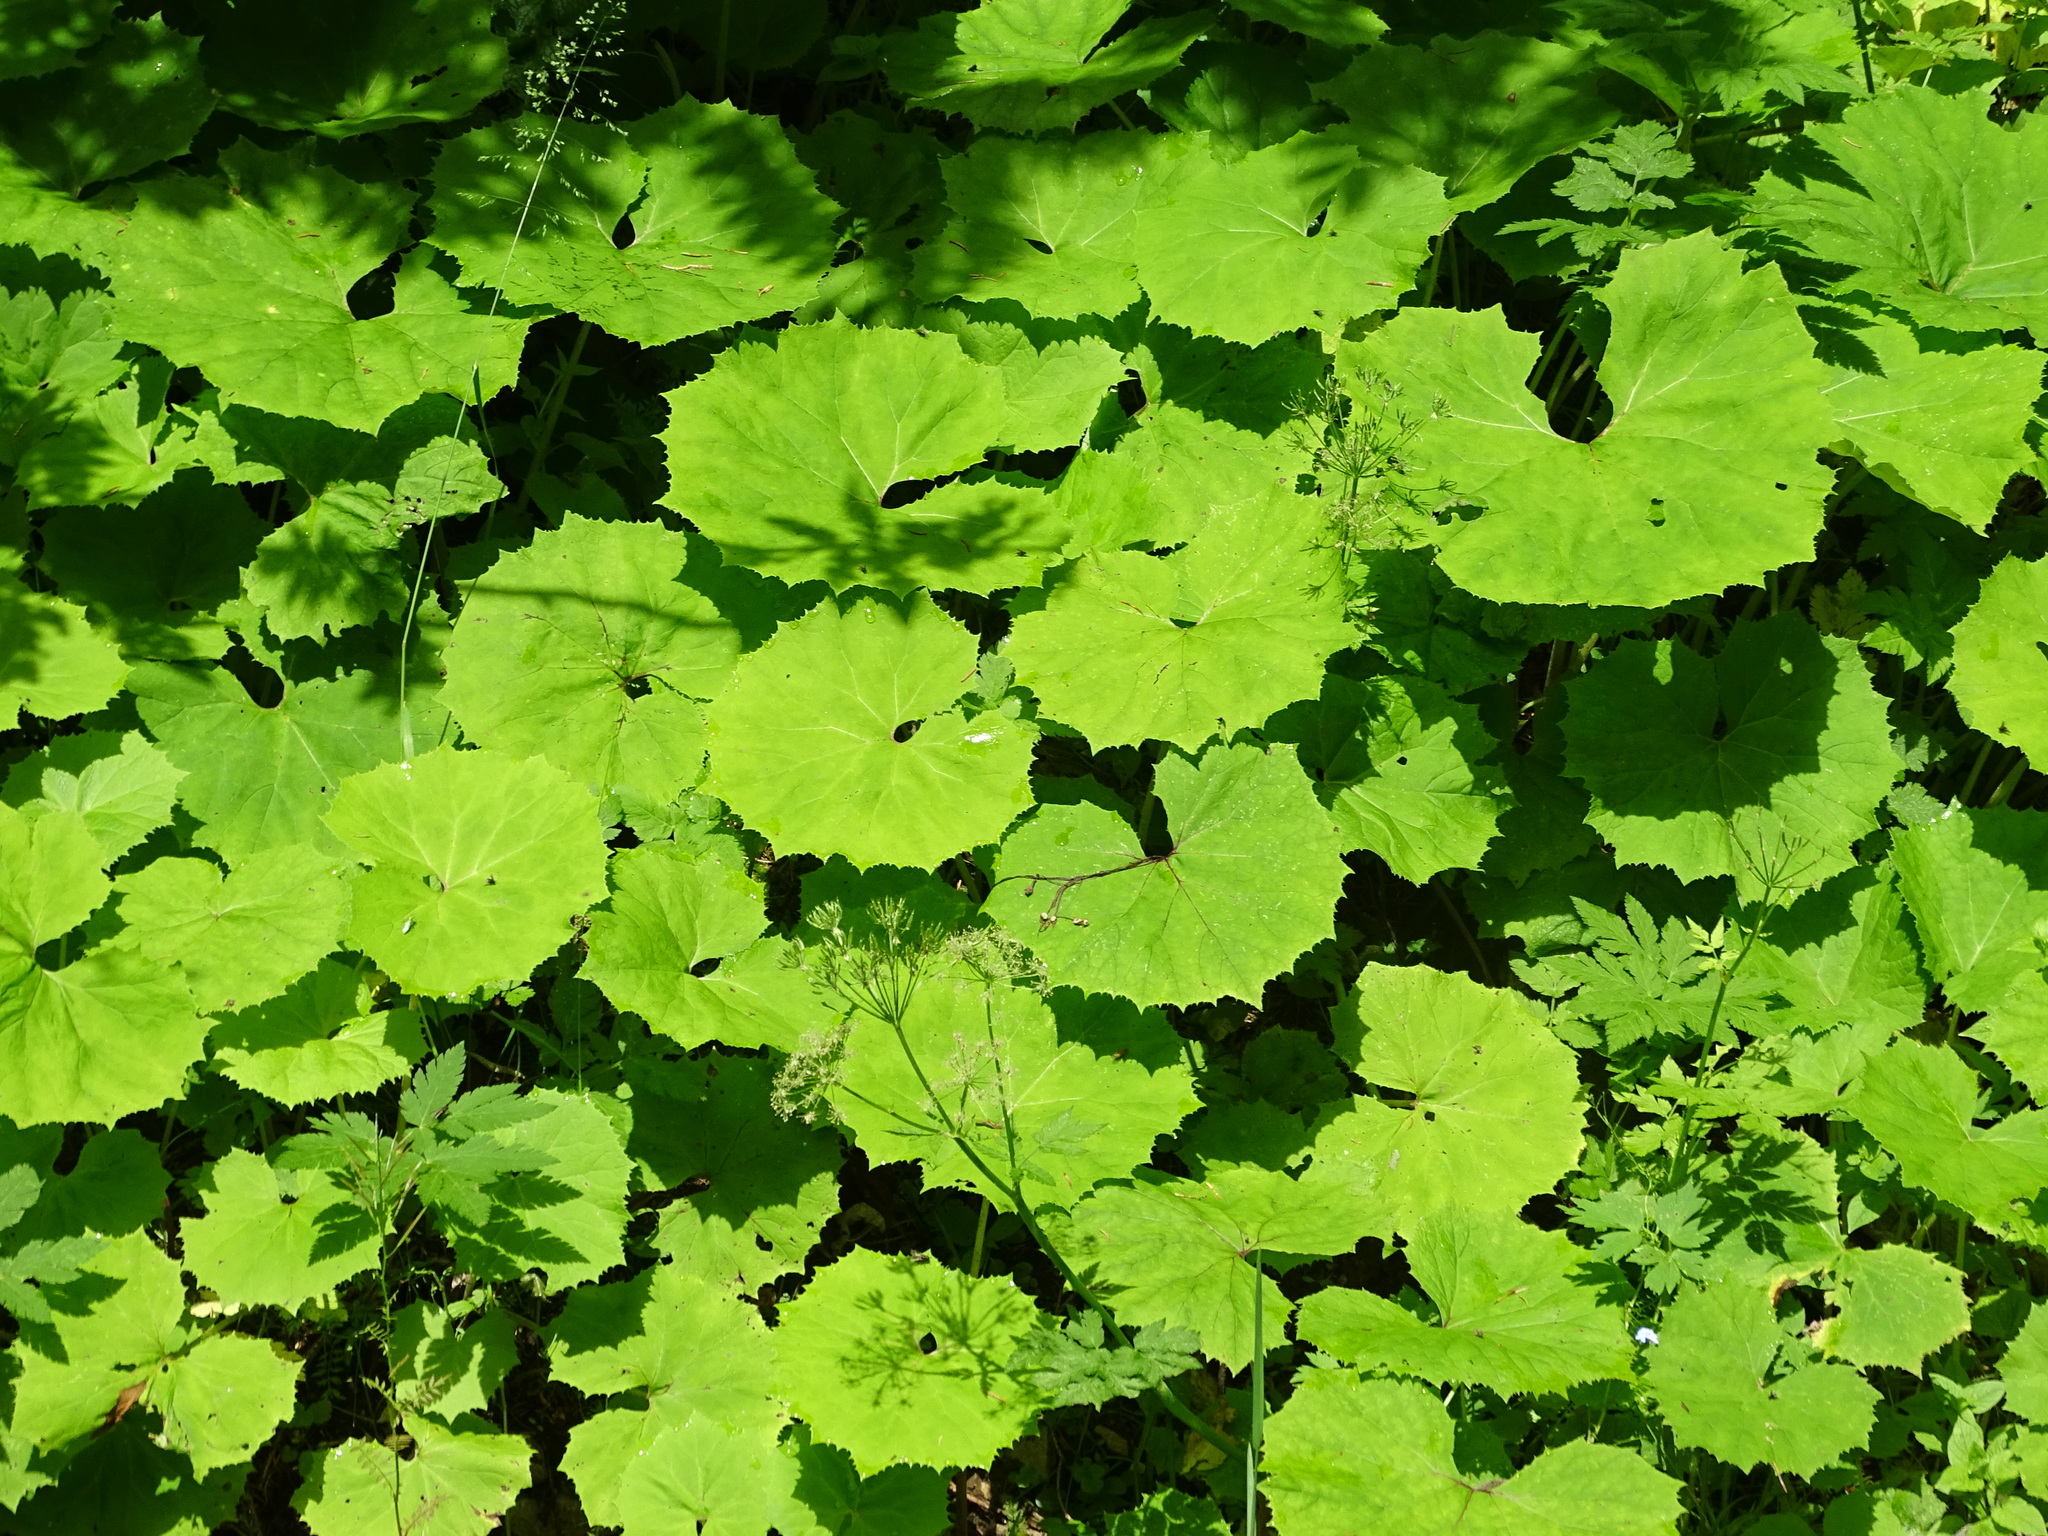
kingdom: Plantae
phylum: Tracheophyta
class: Magnoliopsida
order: Asterales
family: Asteraceae
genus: Petasites
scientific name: Petasites albus
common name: White butterbur
